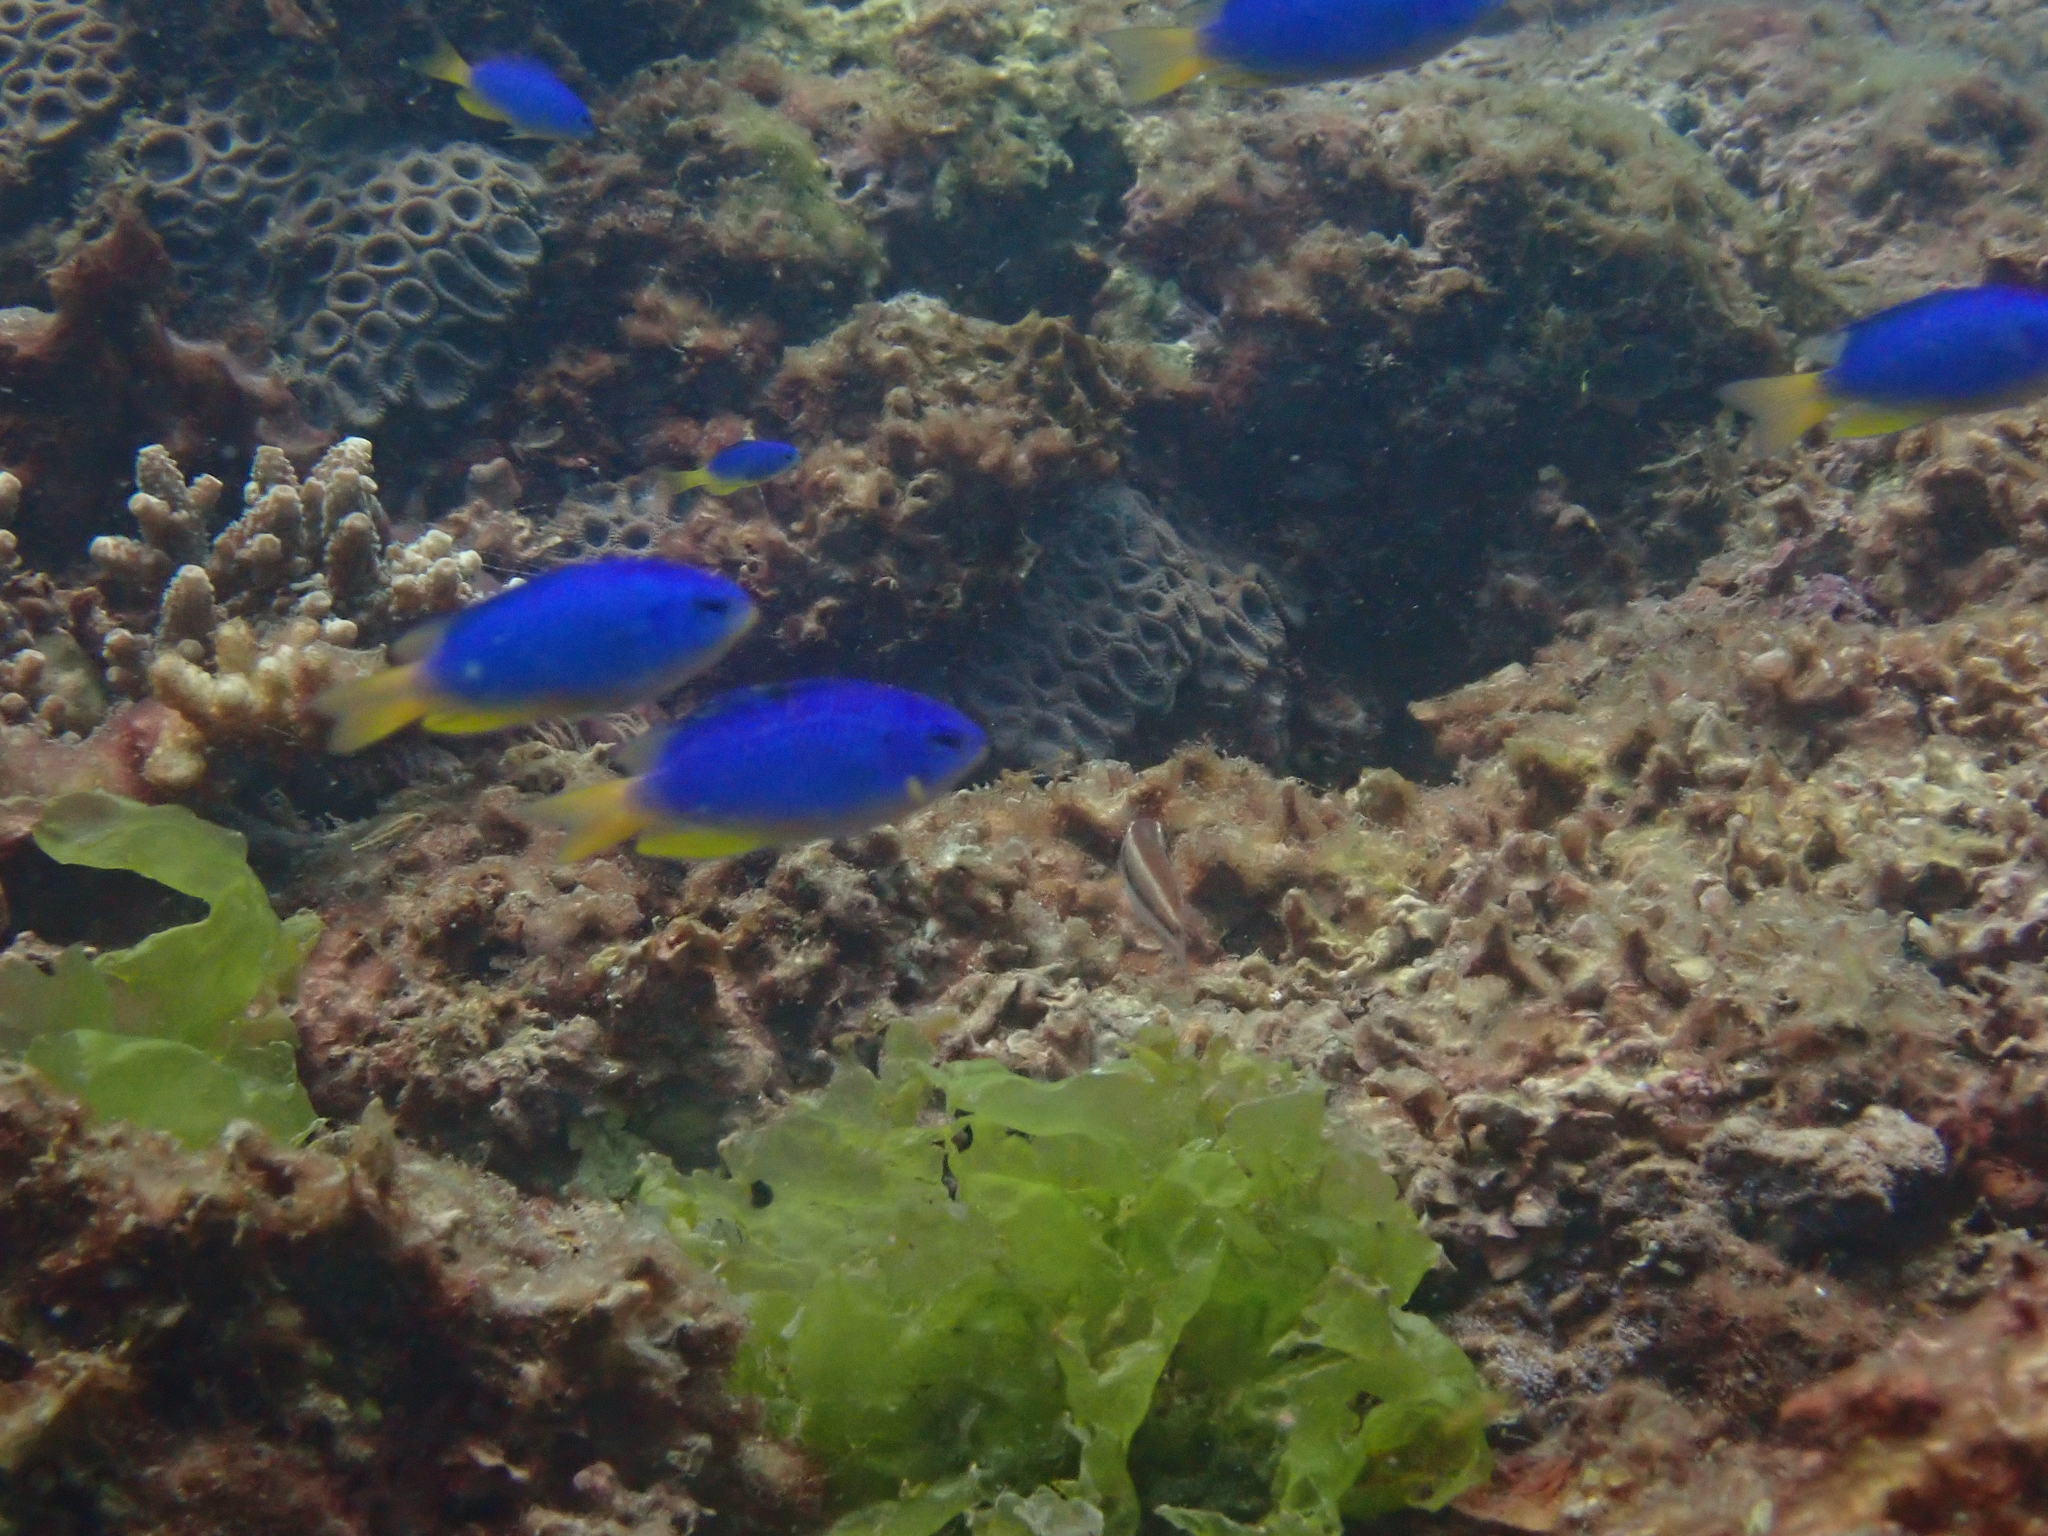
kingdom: Animalia
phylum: Chordata
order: Perciformes
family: Pomacentridae
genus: Pomacentrus
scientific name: Pomacentrus coelestis
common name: Neon damsel
